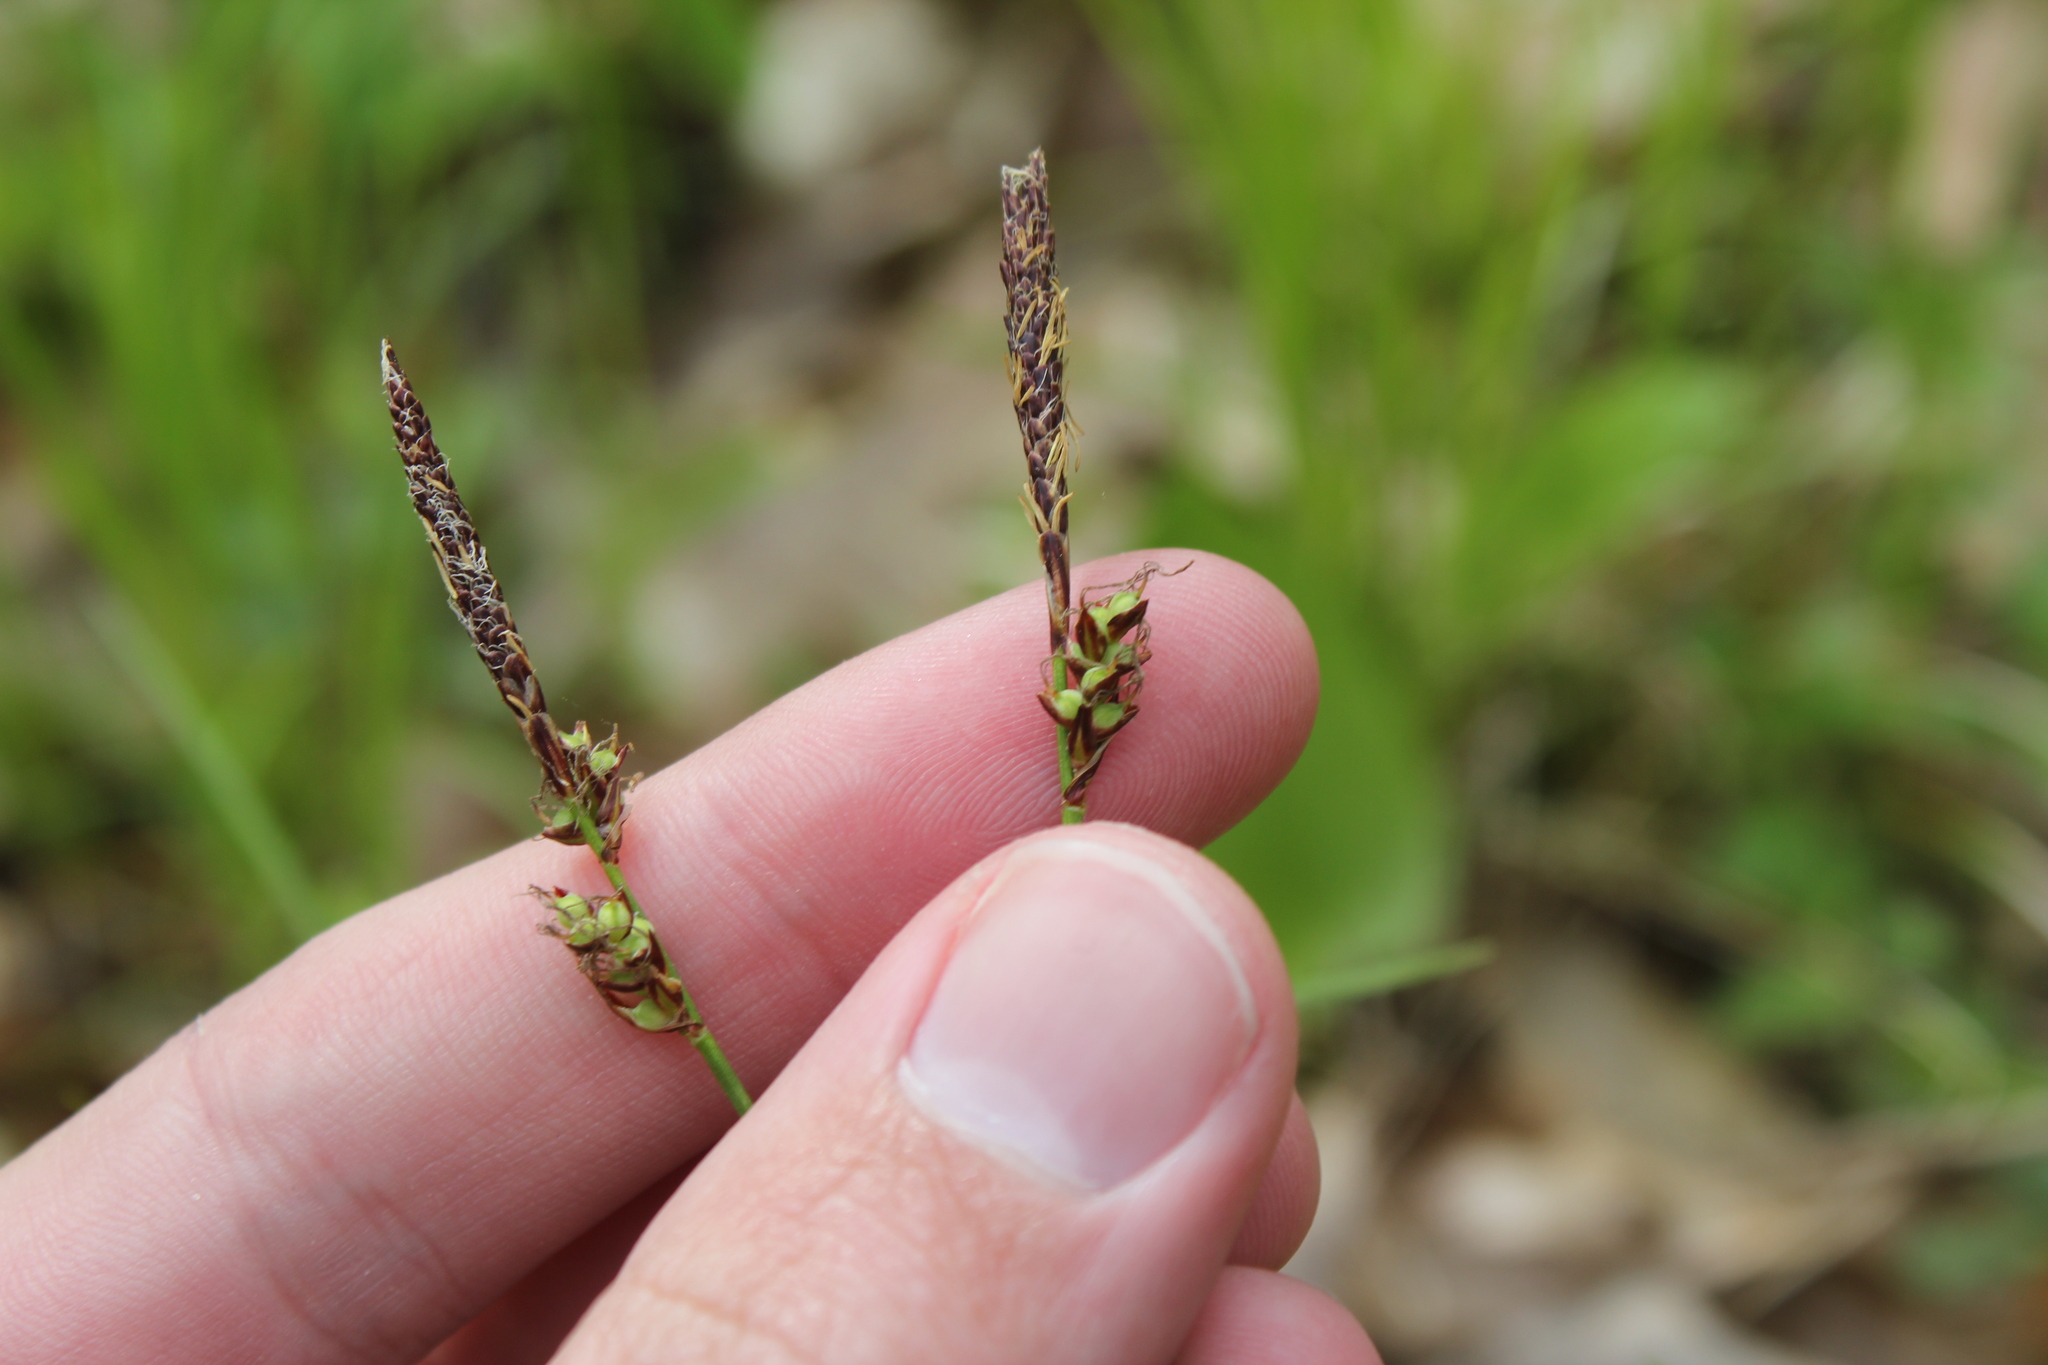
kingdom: Plantae
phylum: Tracheophyta
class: Liliopsida
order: Poales
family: Cyperaceae
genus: Carex
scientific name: Carex pensylvanica
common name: Common oak sedge
